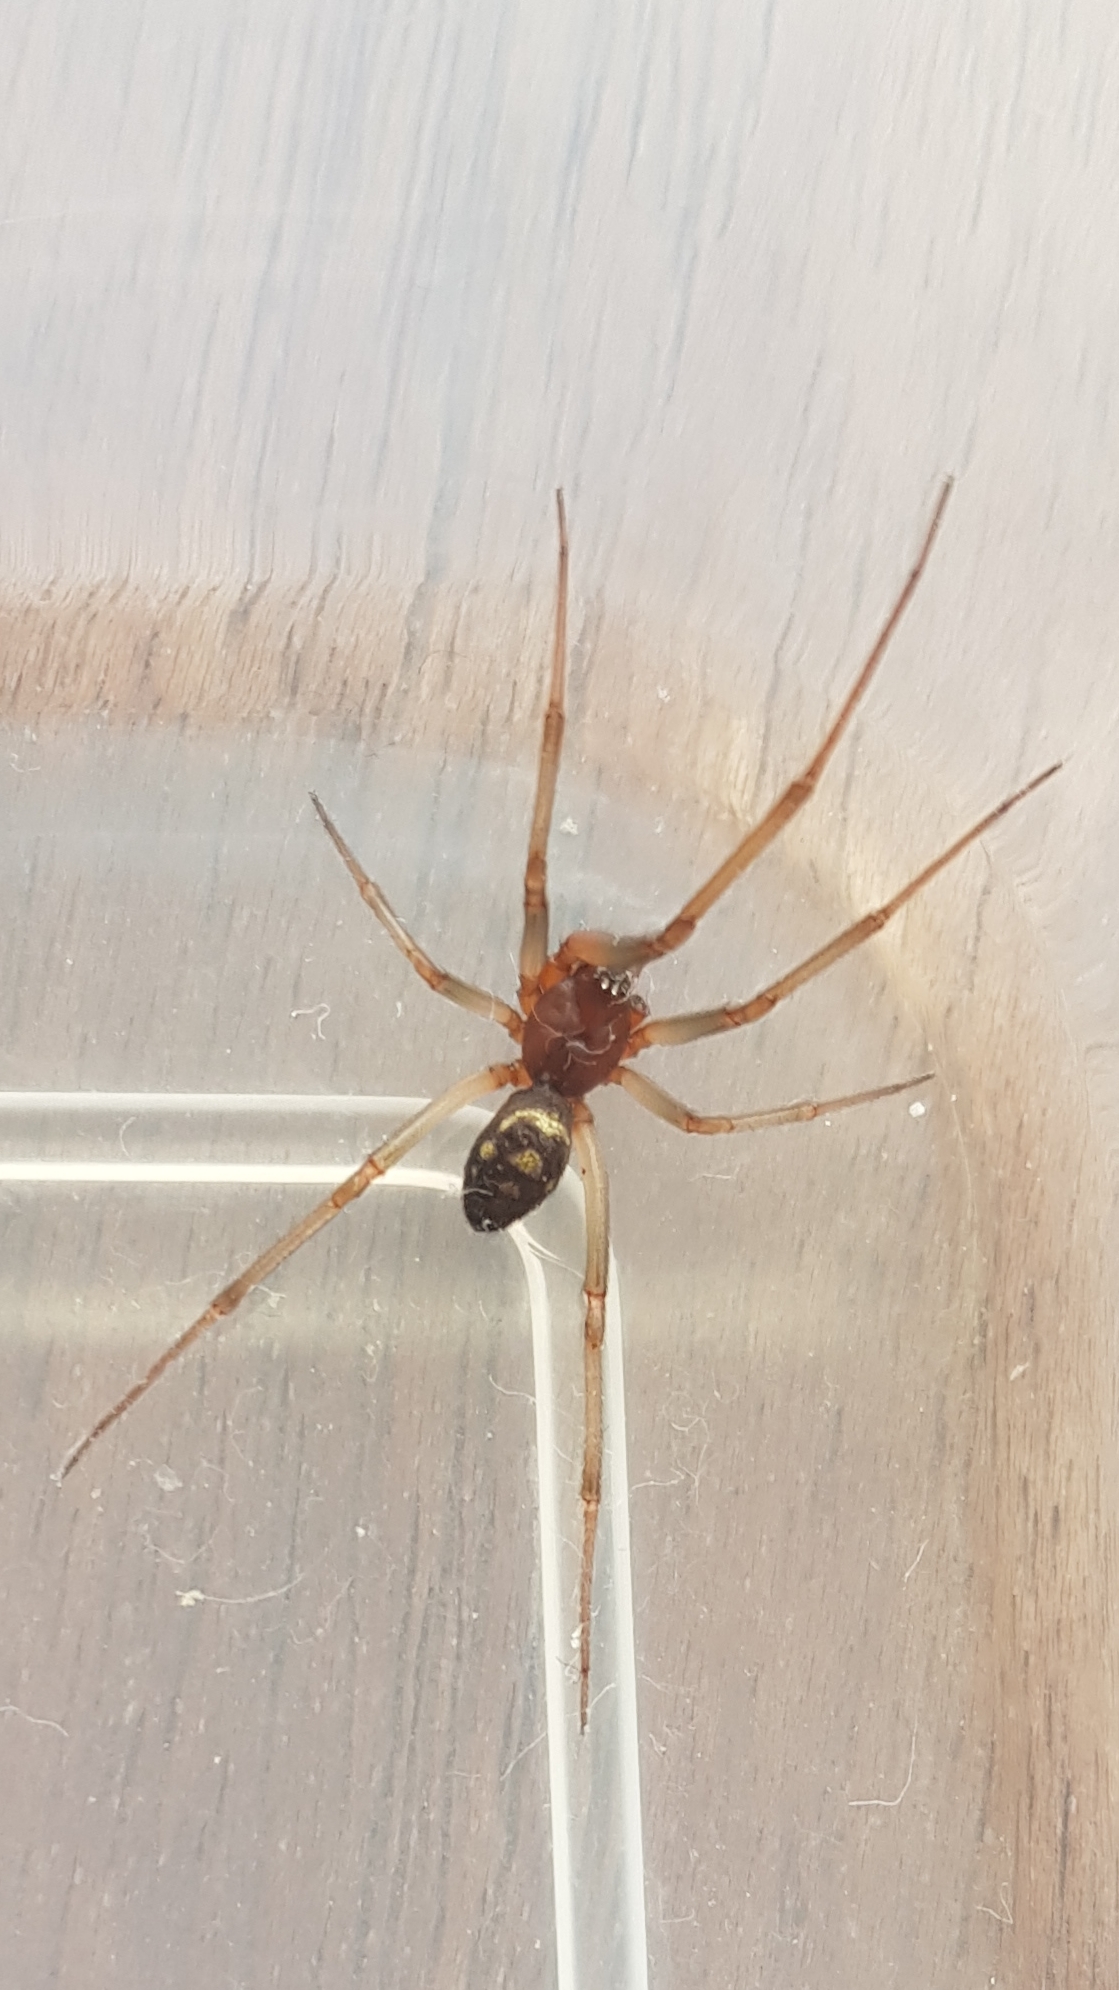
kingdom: Animalia
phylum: Arthropoda
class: Arachnida
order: Araneae
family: Theridiidae
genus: Steatoda
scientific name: Steatoda grossa
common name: False black widow
